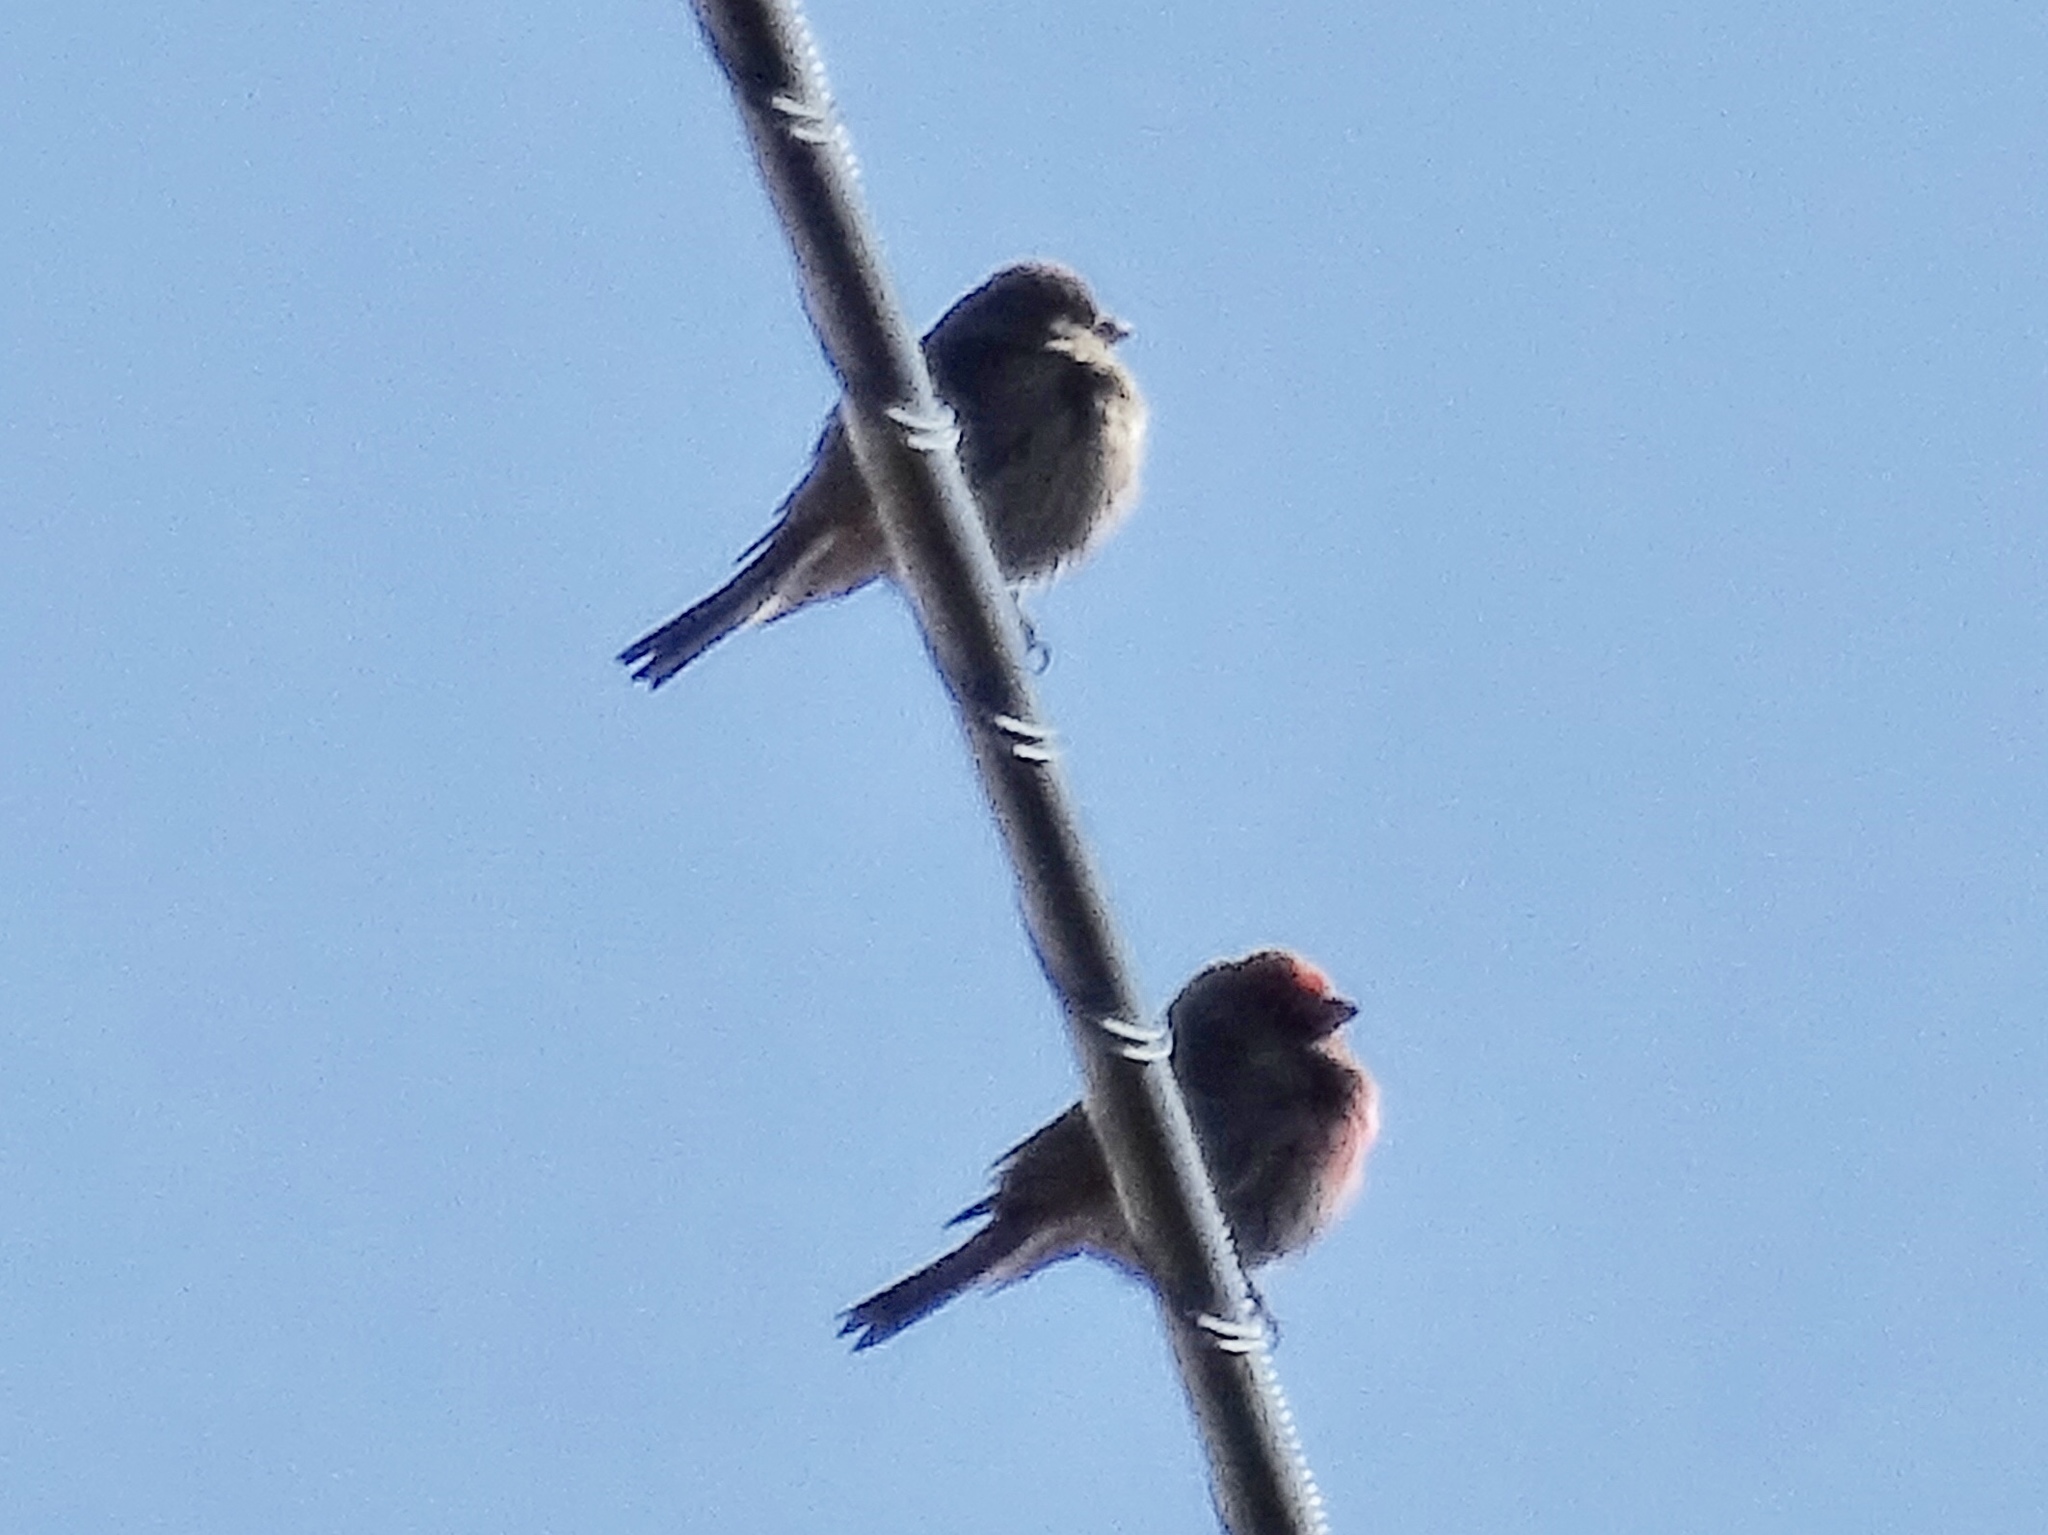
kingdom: Animalia
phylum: Chordata
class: Aves
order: Passeriformes
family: Fringillidae
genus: Haemorhous
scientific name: Haemorhous mexicanus
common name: House finch
